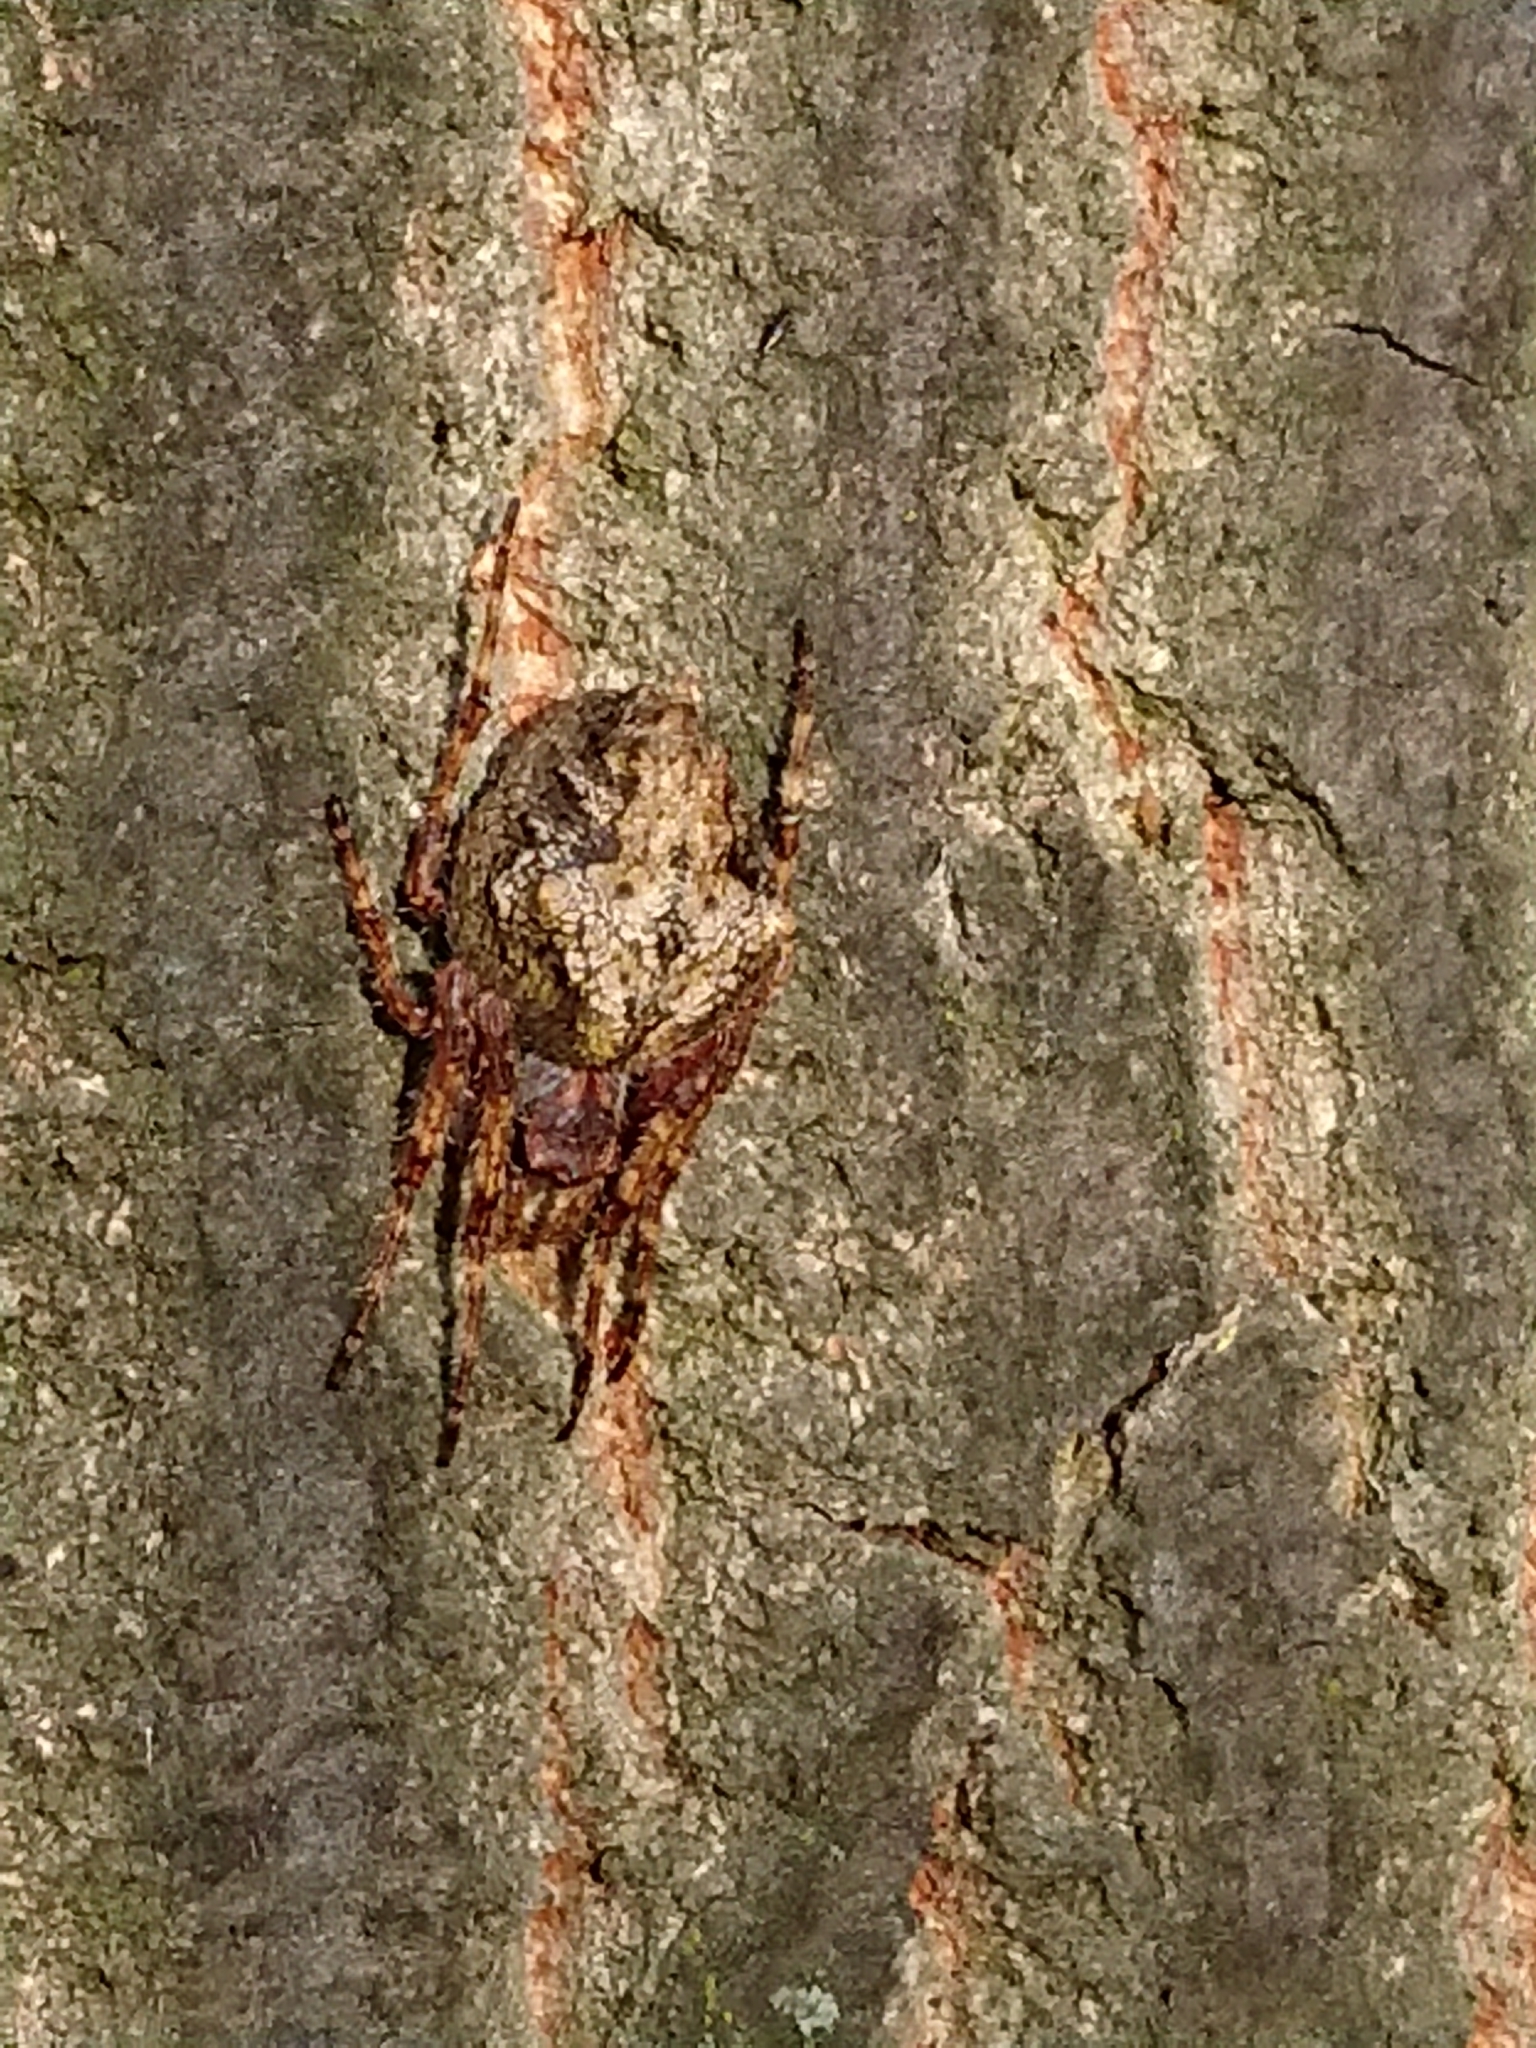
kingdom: Animalia
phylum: Arthropoda
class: Arachnida
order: Araneae
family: Araneidae
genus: Eriophora
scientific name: Eriophora pustulosa
